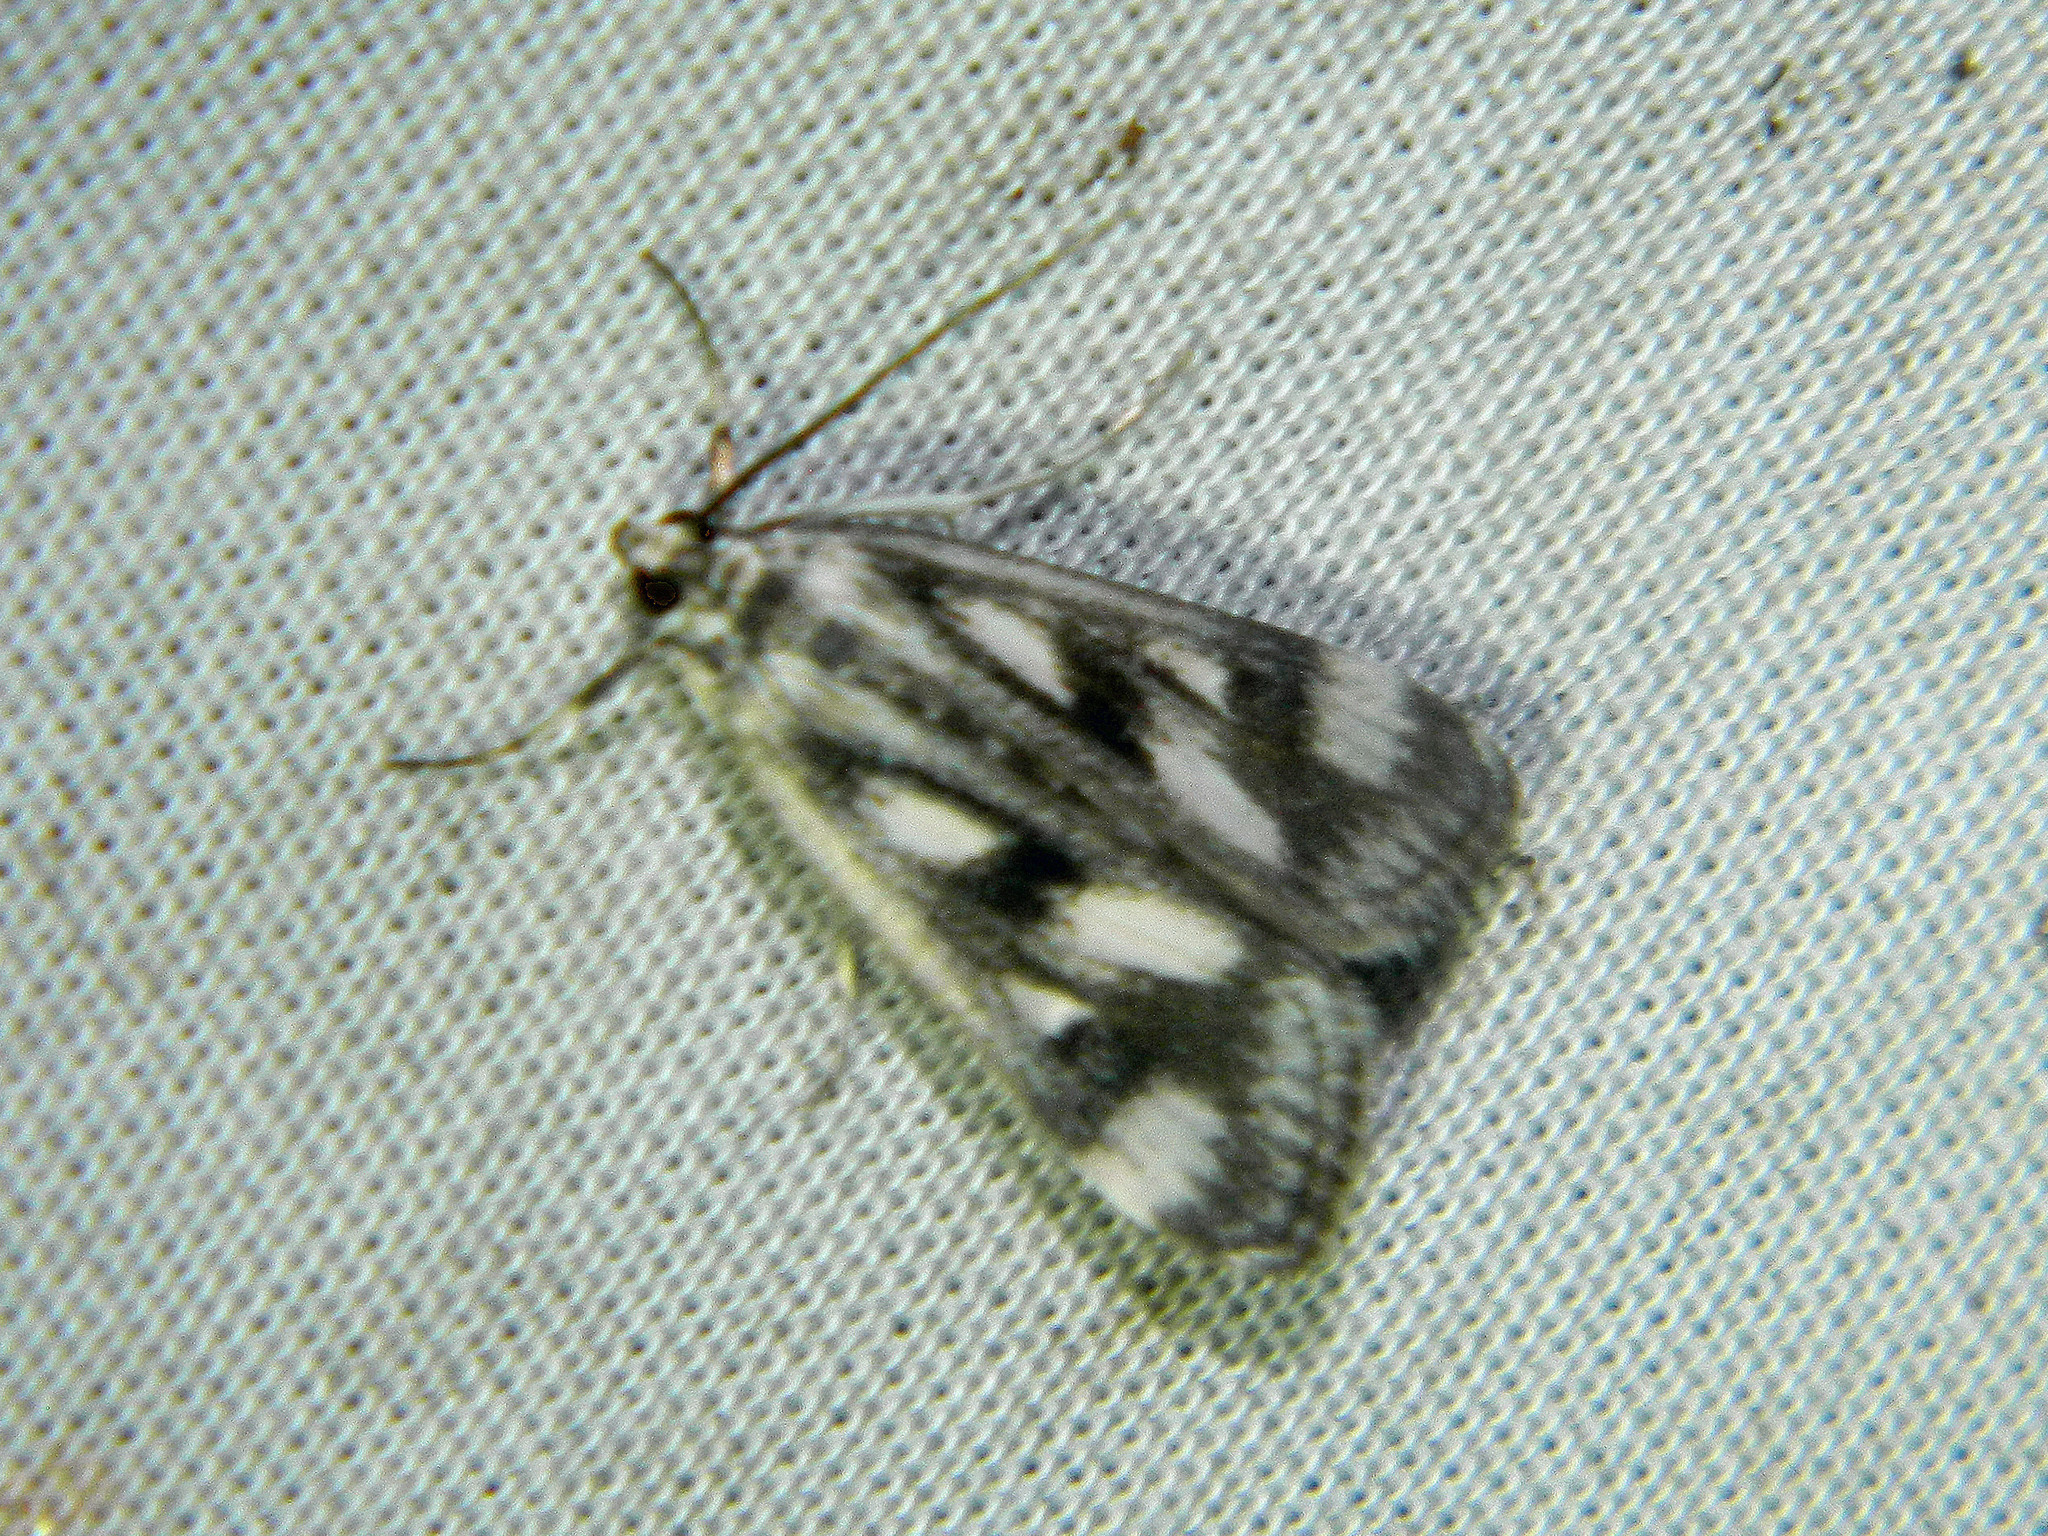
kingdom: Animalia
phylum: Arthropoda
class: Insecta
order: Lepidoptera
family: Crambidae
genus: Parapoynx
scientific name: Parapoynx maculalis
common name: Polymorphic pondweed moth
